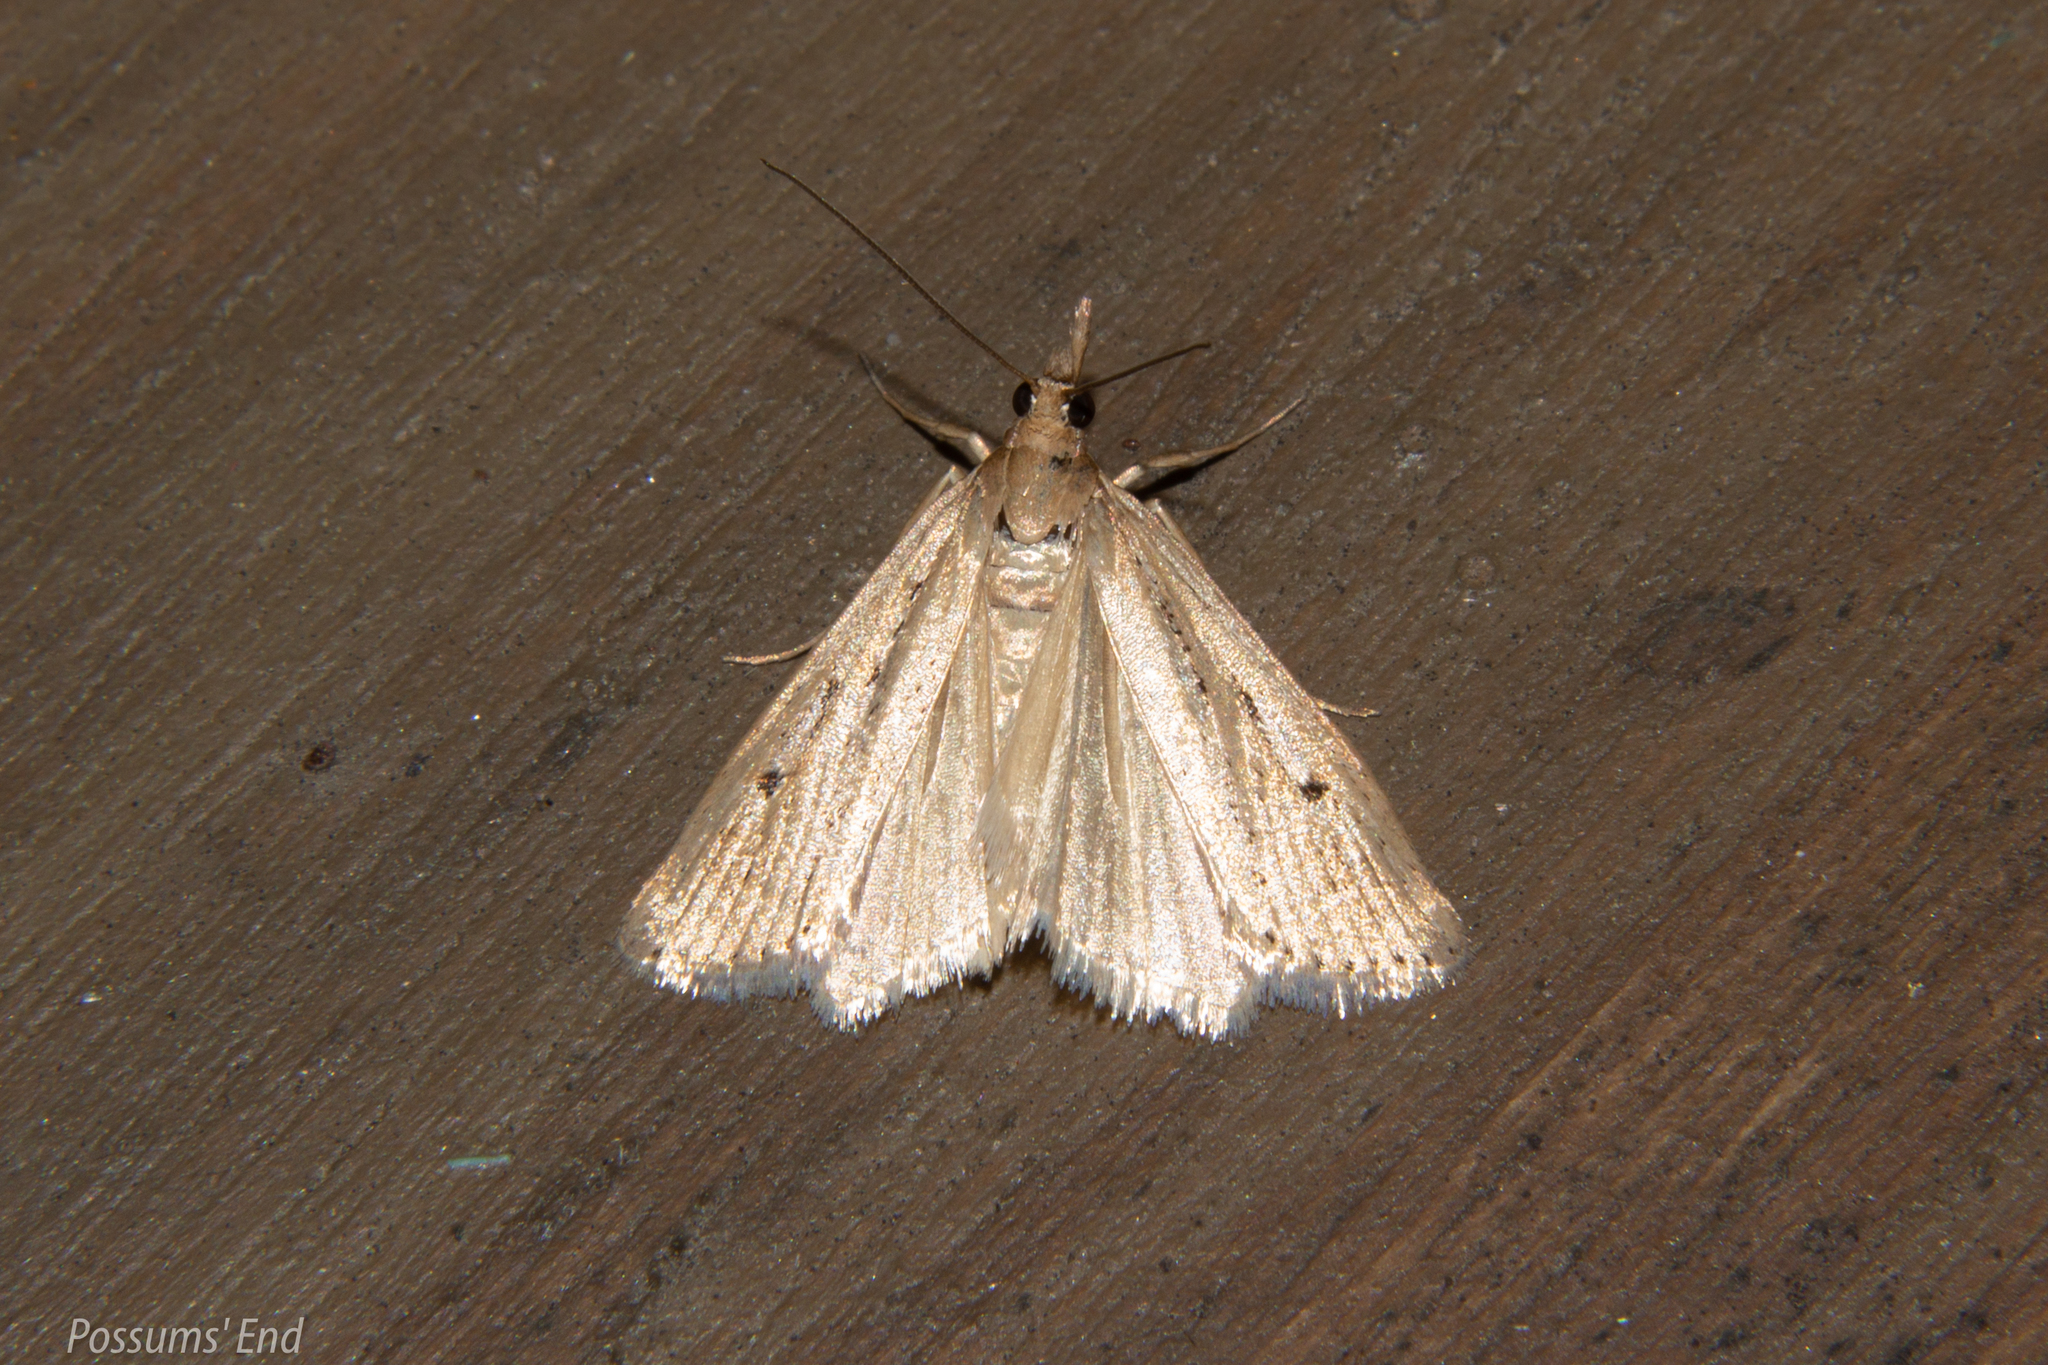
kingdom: Animalia
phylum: Arthropoda
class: Insecta
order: Lepidoptera
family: Crambidae
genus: Eudonia
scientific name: Eudonia sabulosella
